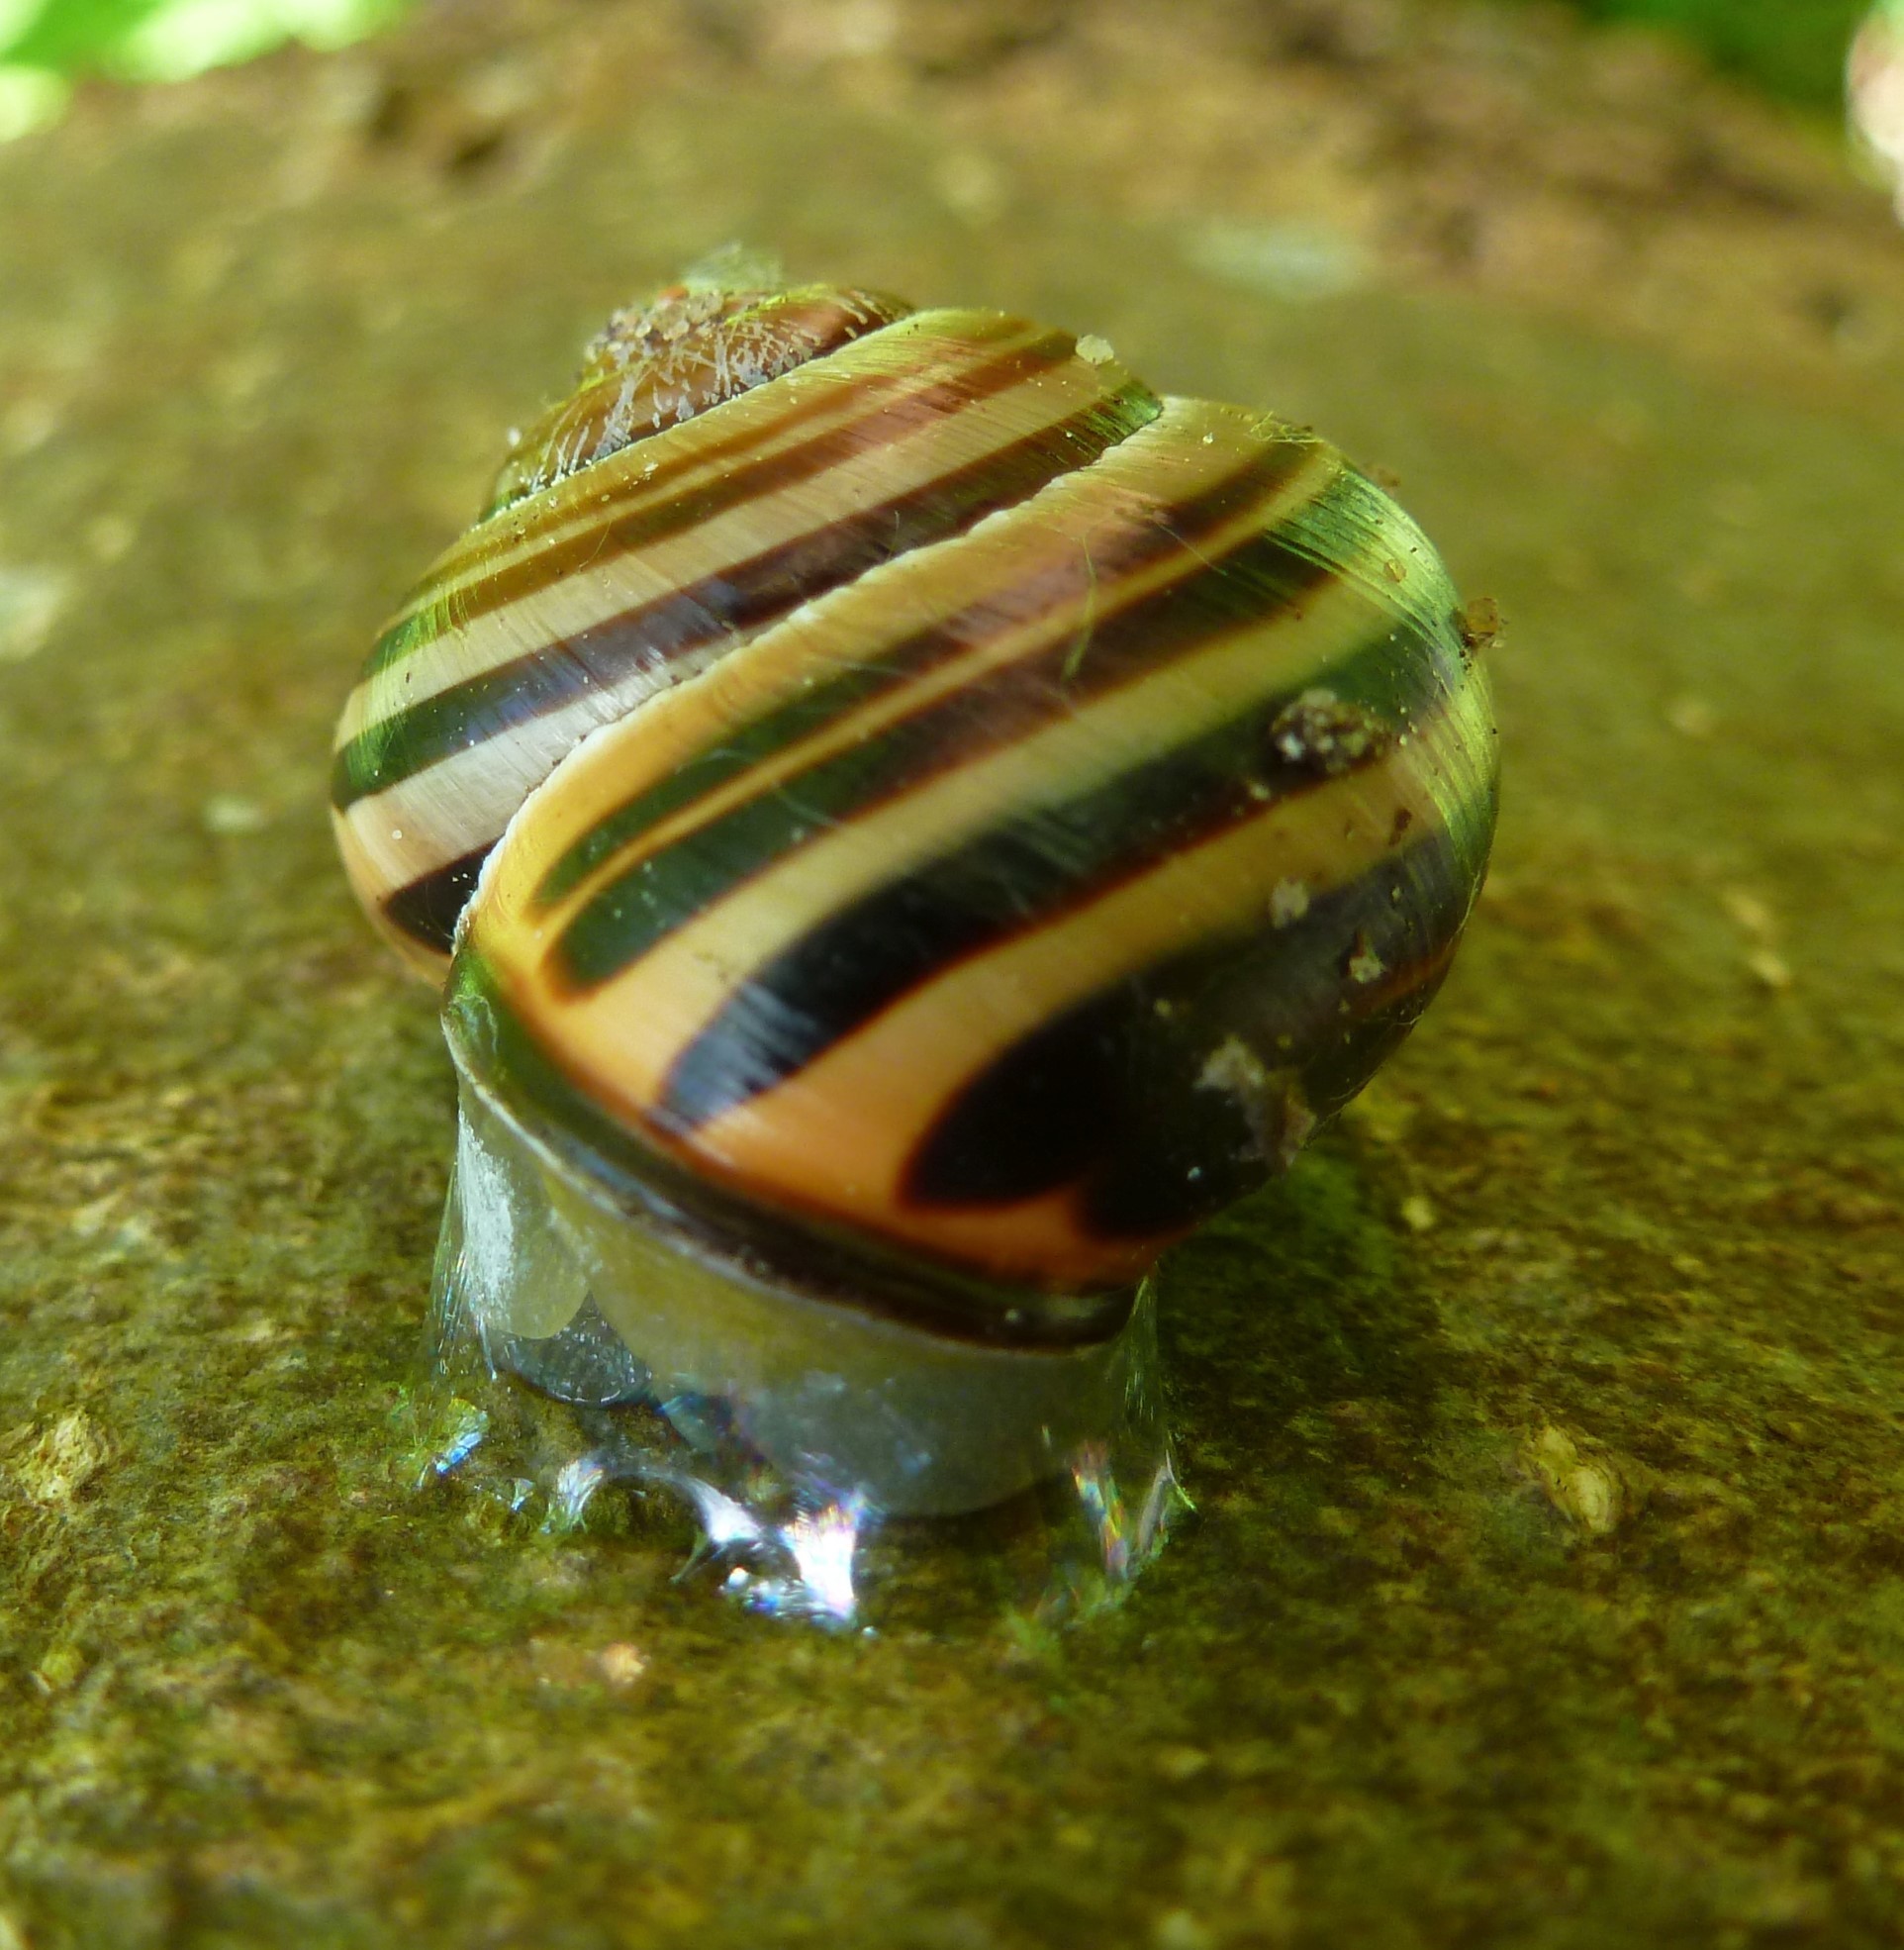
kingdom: Animalia
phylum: Mollusca
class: Gastropoda
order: Stylommatophora
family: Helicidae
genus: Cepaea
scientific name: Cepaea nemoralis
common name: Grovesnail
